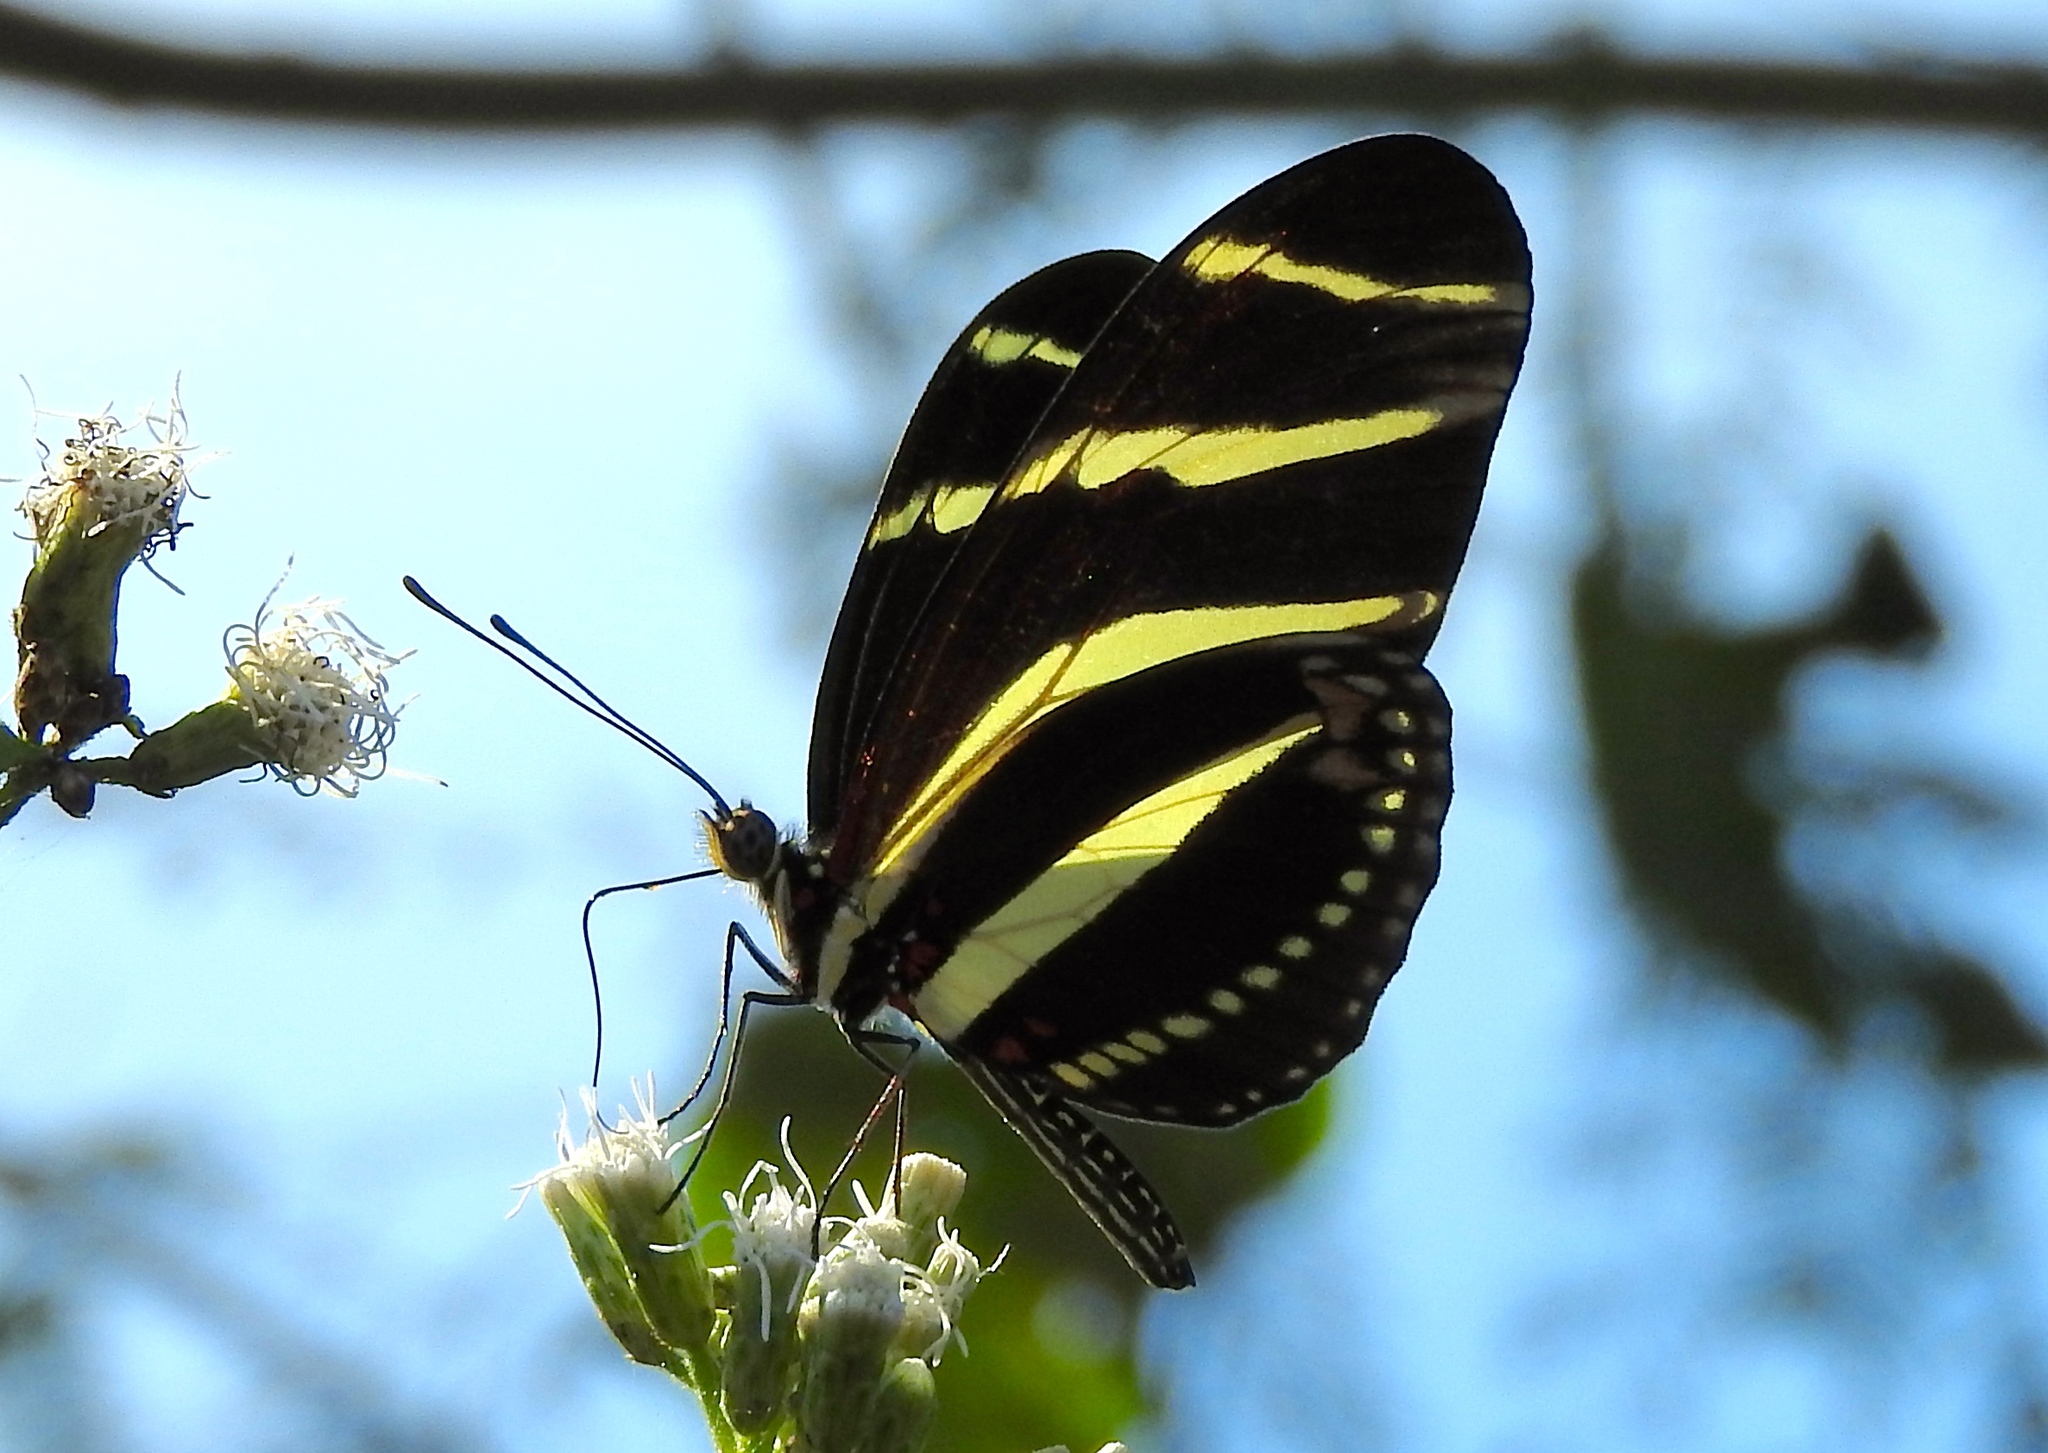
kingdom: Animalia
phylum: Arthropoda
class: Insecta
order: Lepidoptera
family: Nymphalidae
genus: Heliconius
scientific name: Heliconius charithonia
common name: Zebra long wing
